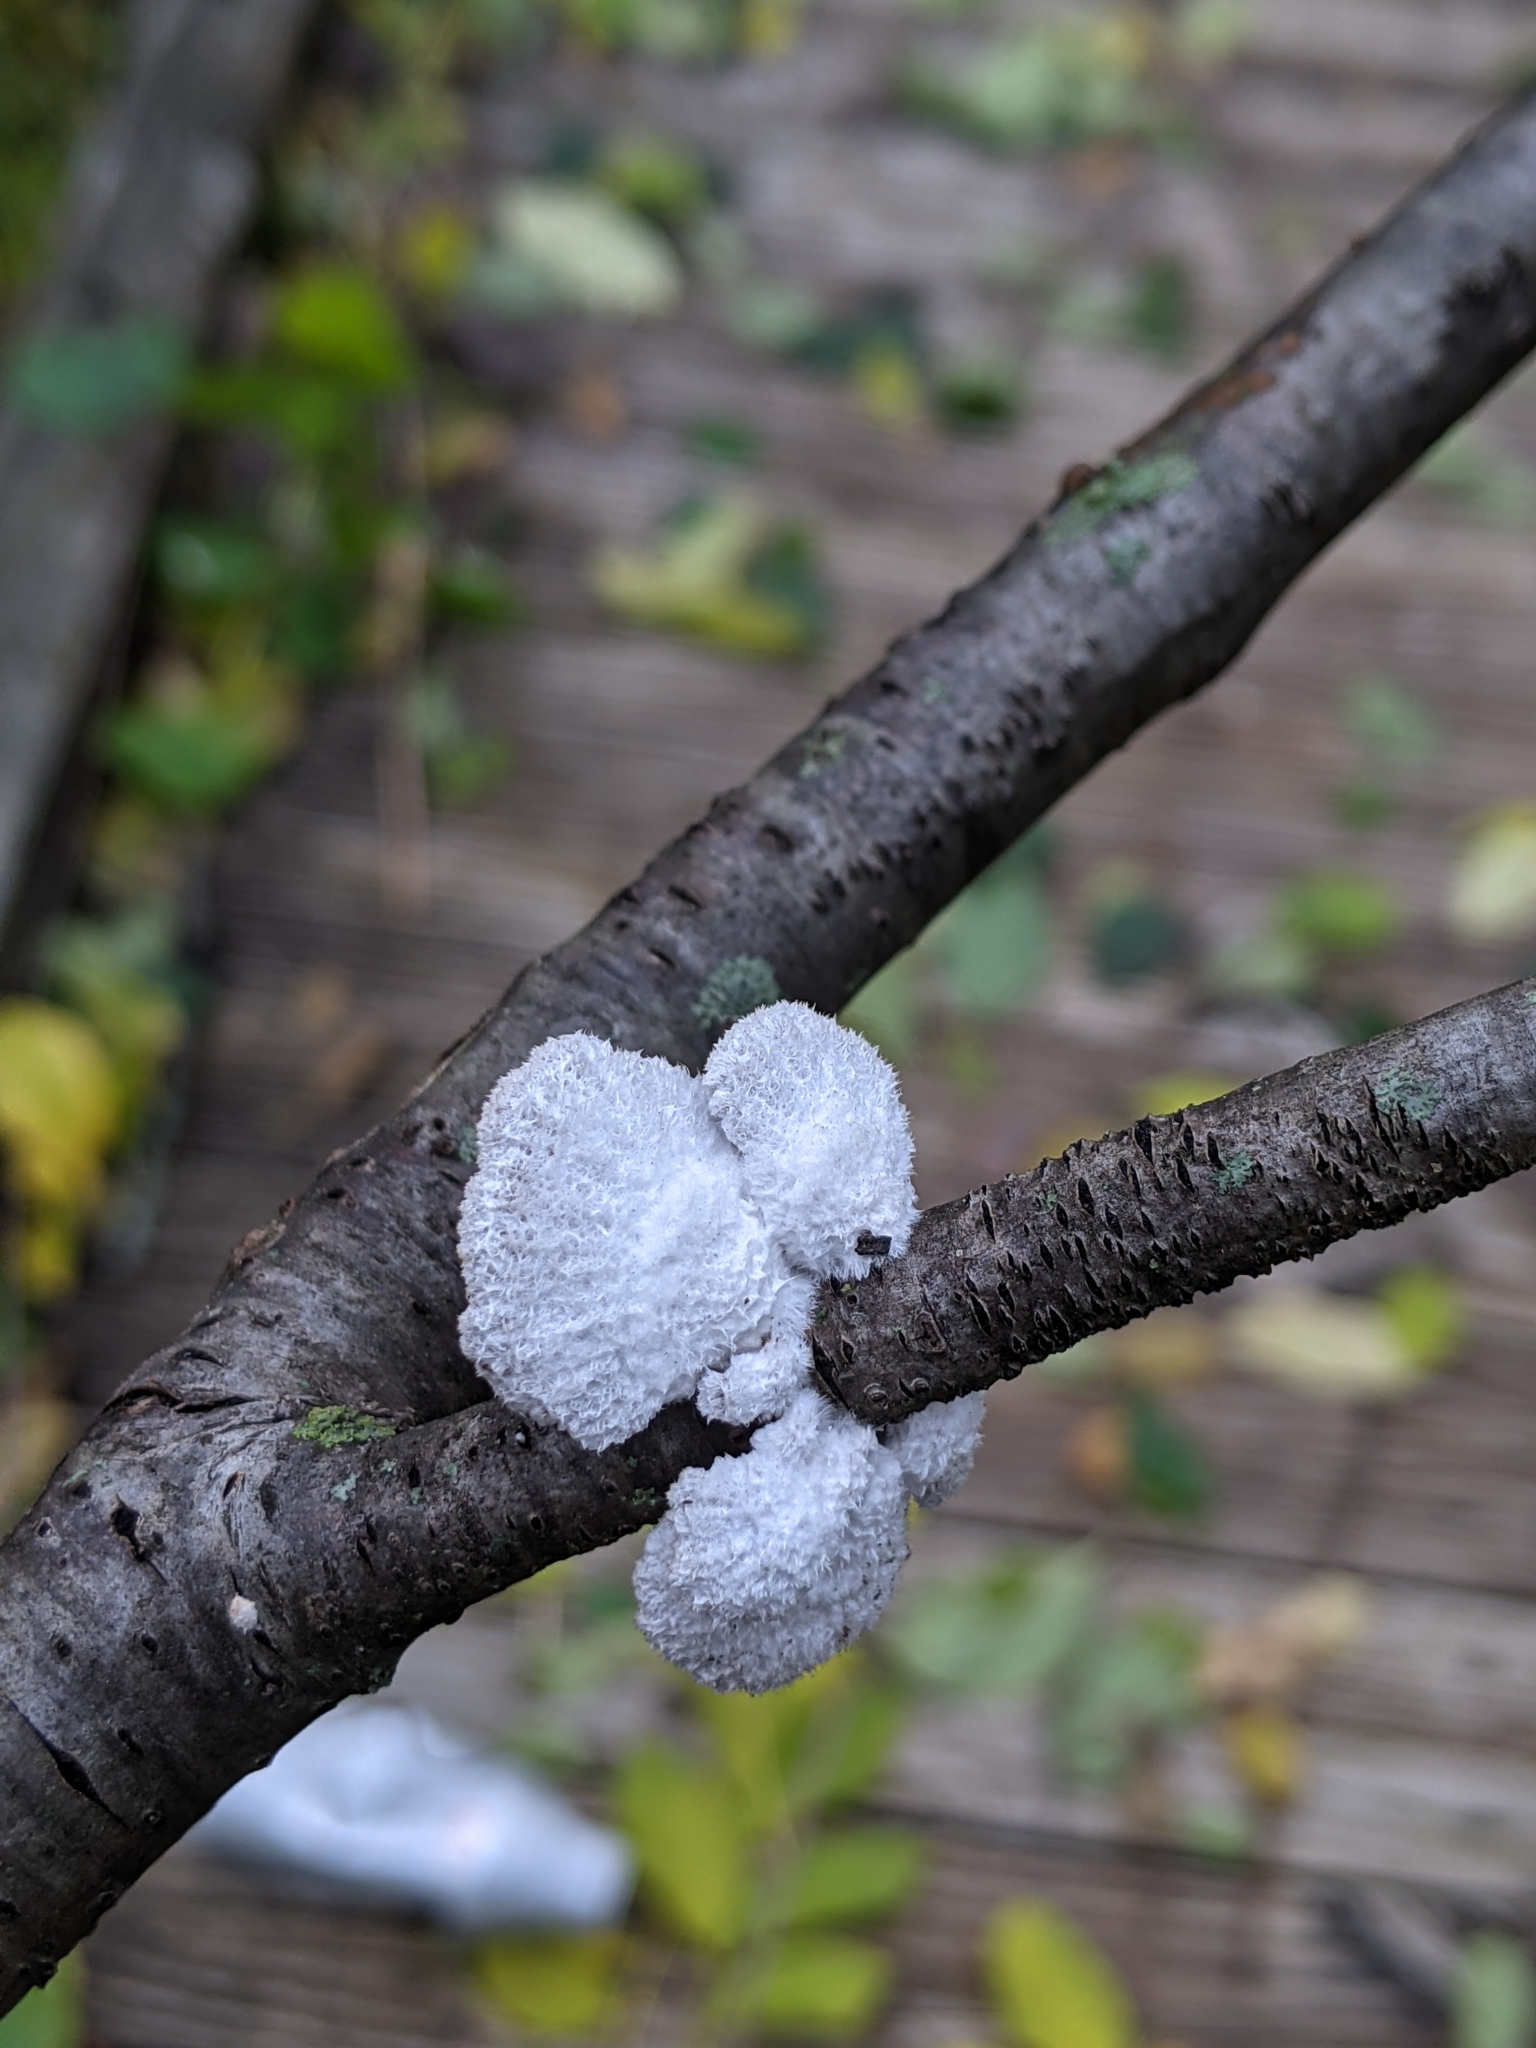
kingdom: Fungi
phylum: Basidiomycota
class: Agaricomycetes
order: Agaricales
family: Schizophyllaceae
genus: Schizophyllum
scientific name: Schizophyllum commune
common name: Common porecrust
